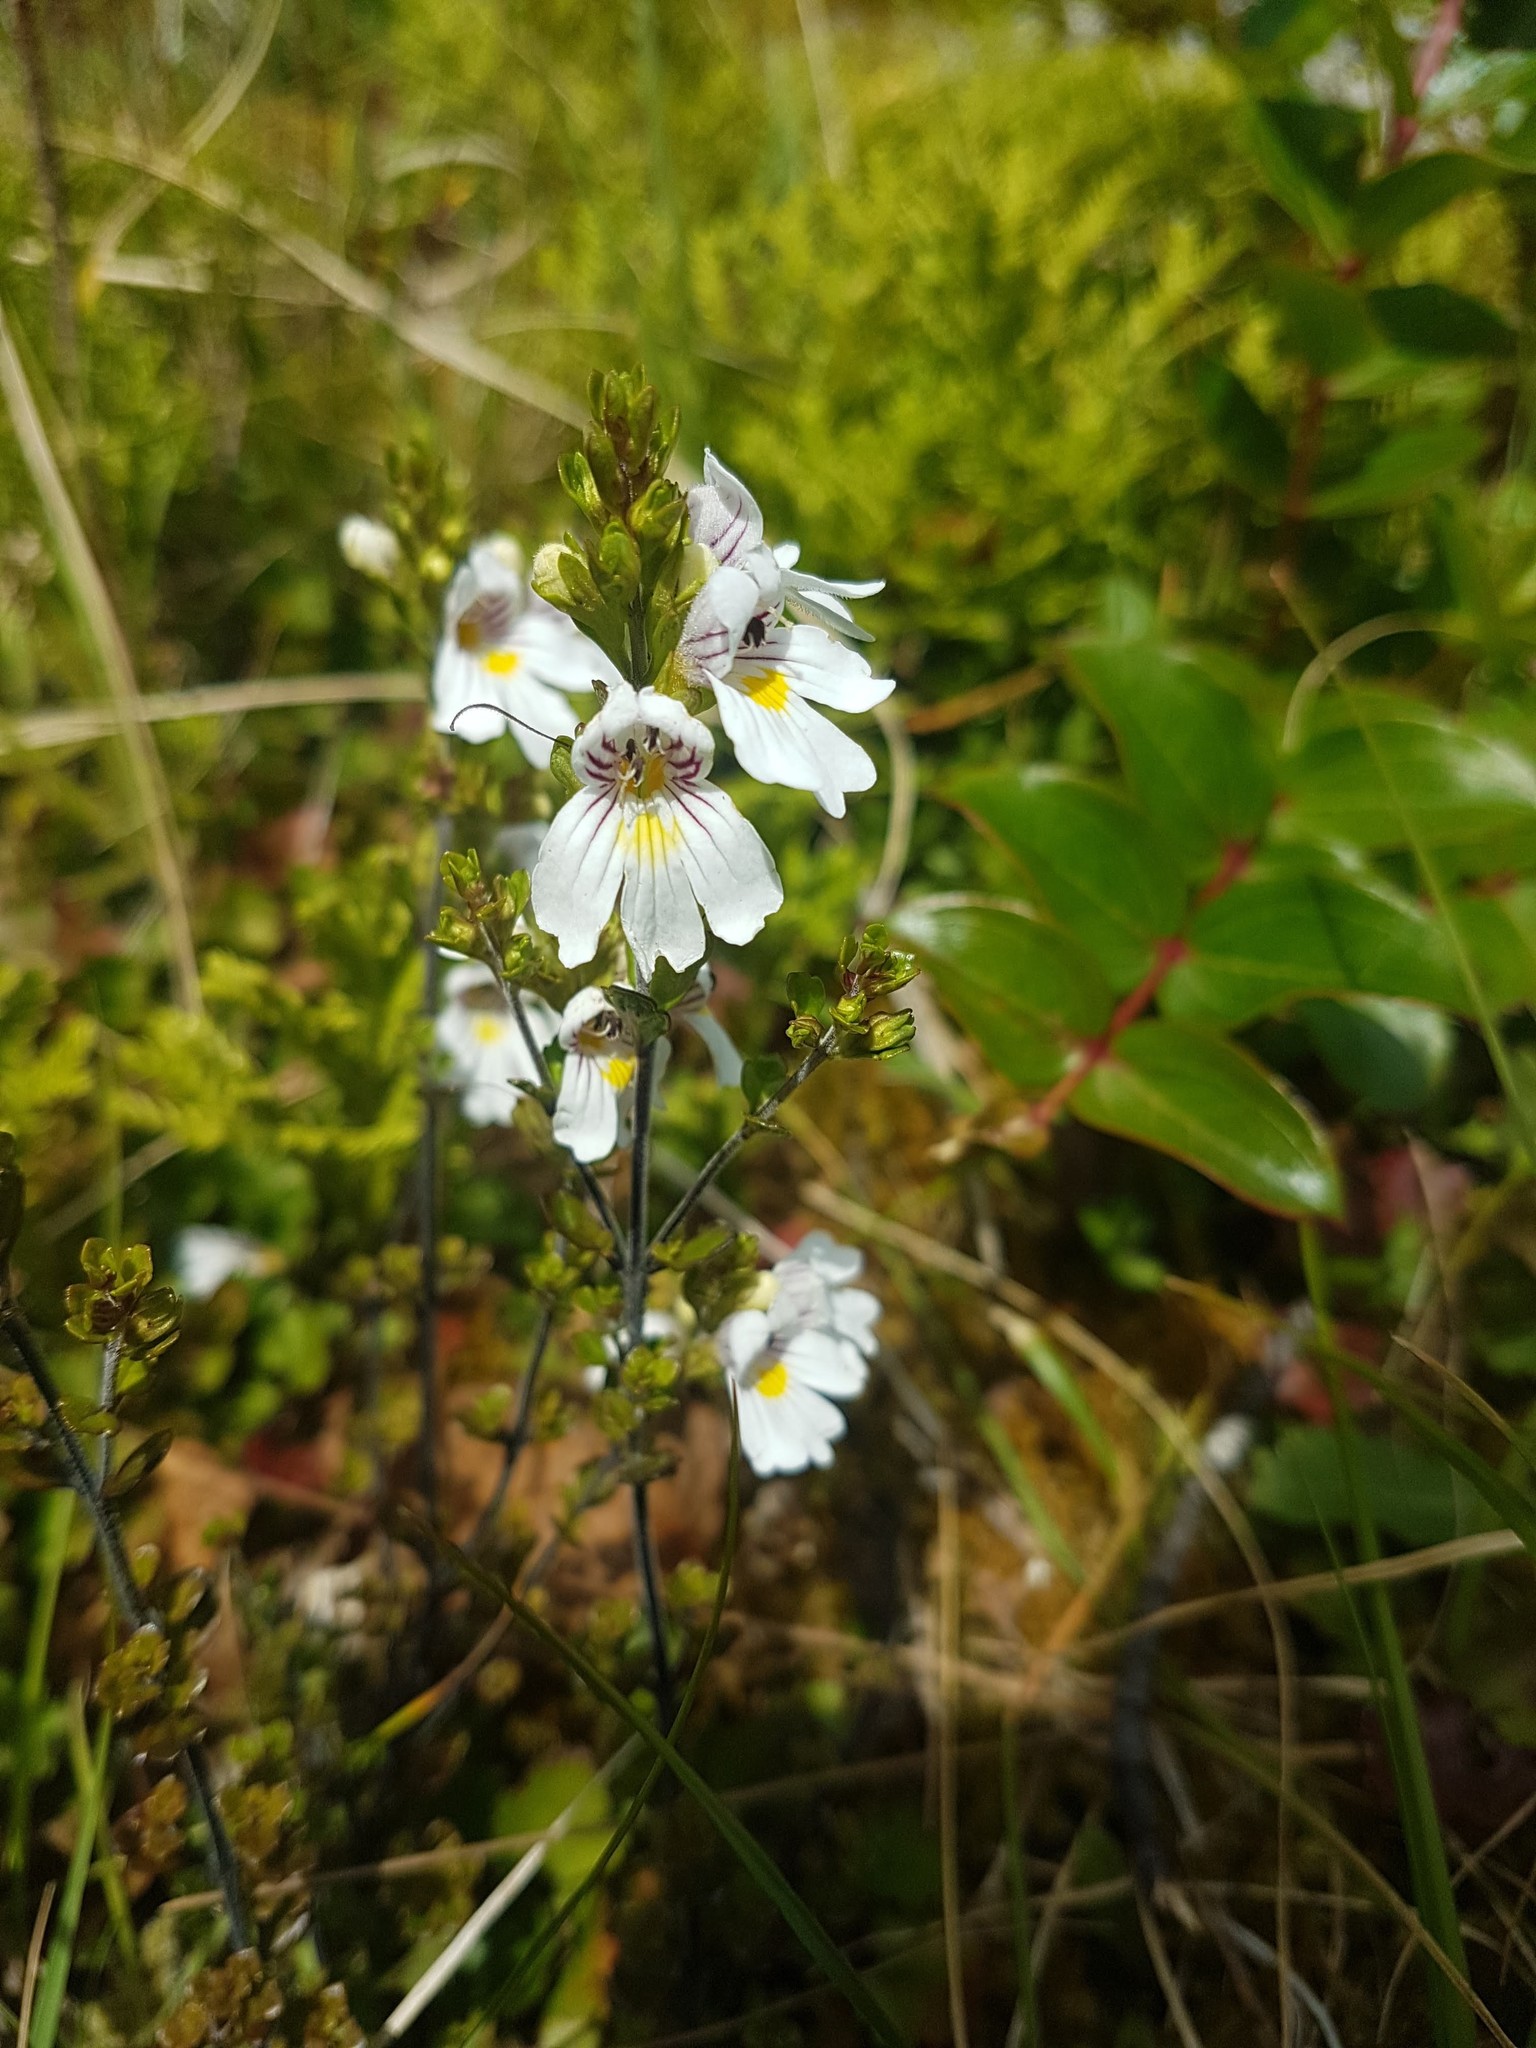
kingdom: Plantae
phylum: Tracheophyta
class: Magnoliopsida
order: Lamiales
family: Orobanchaceae
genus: Euphrasia
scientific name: Euphrasia cuneata
